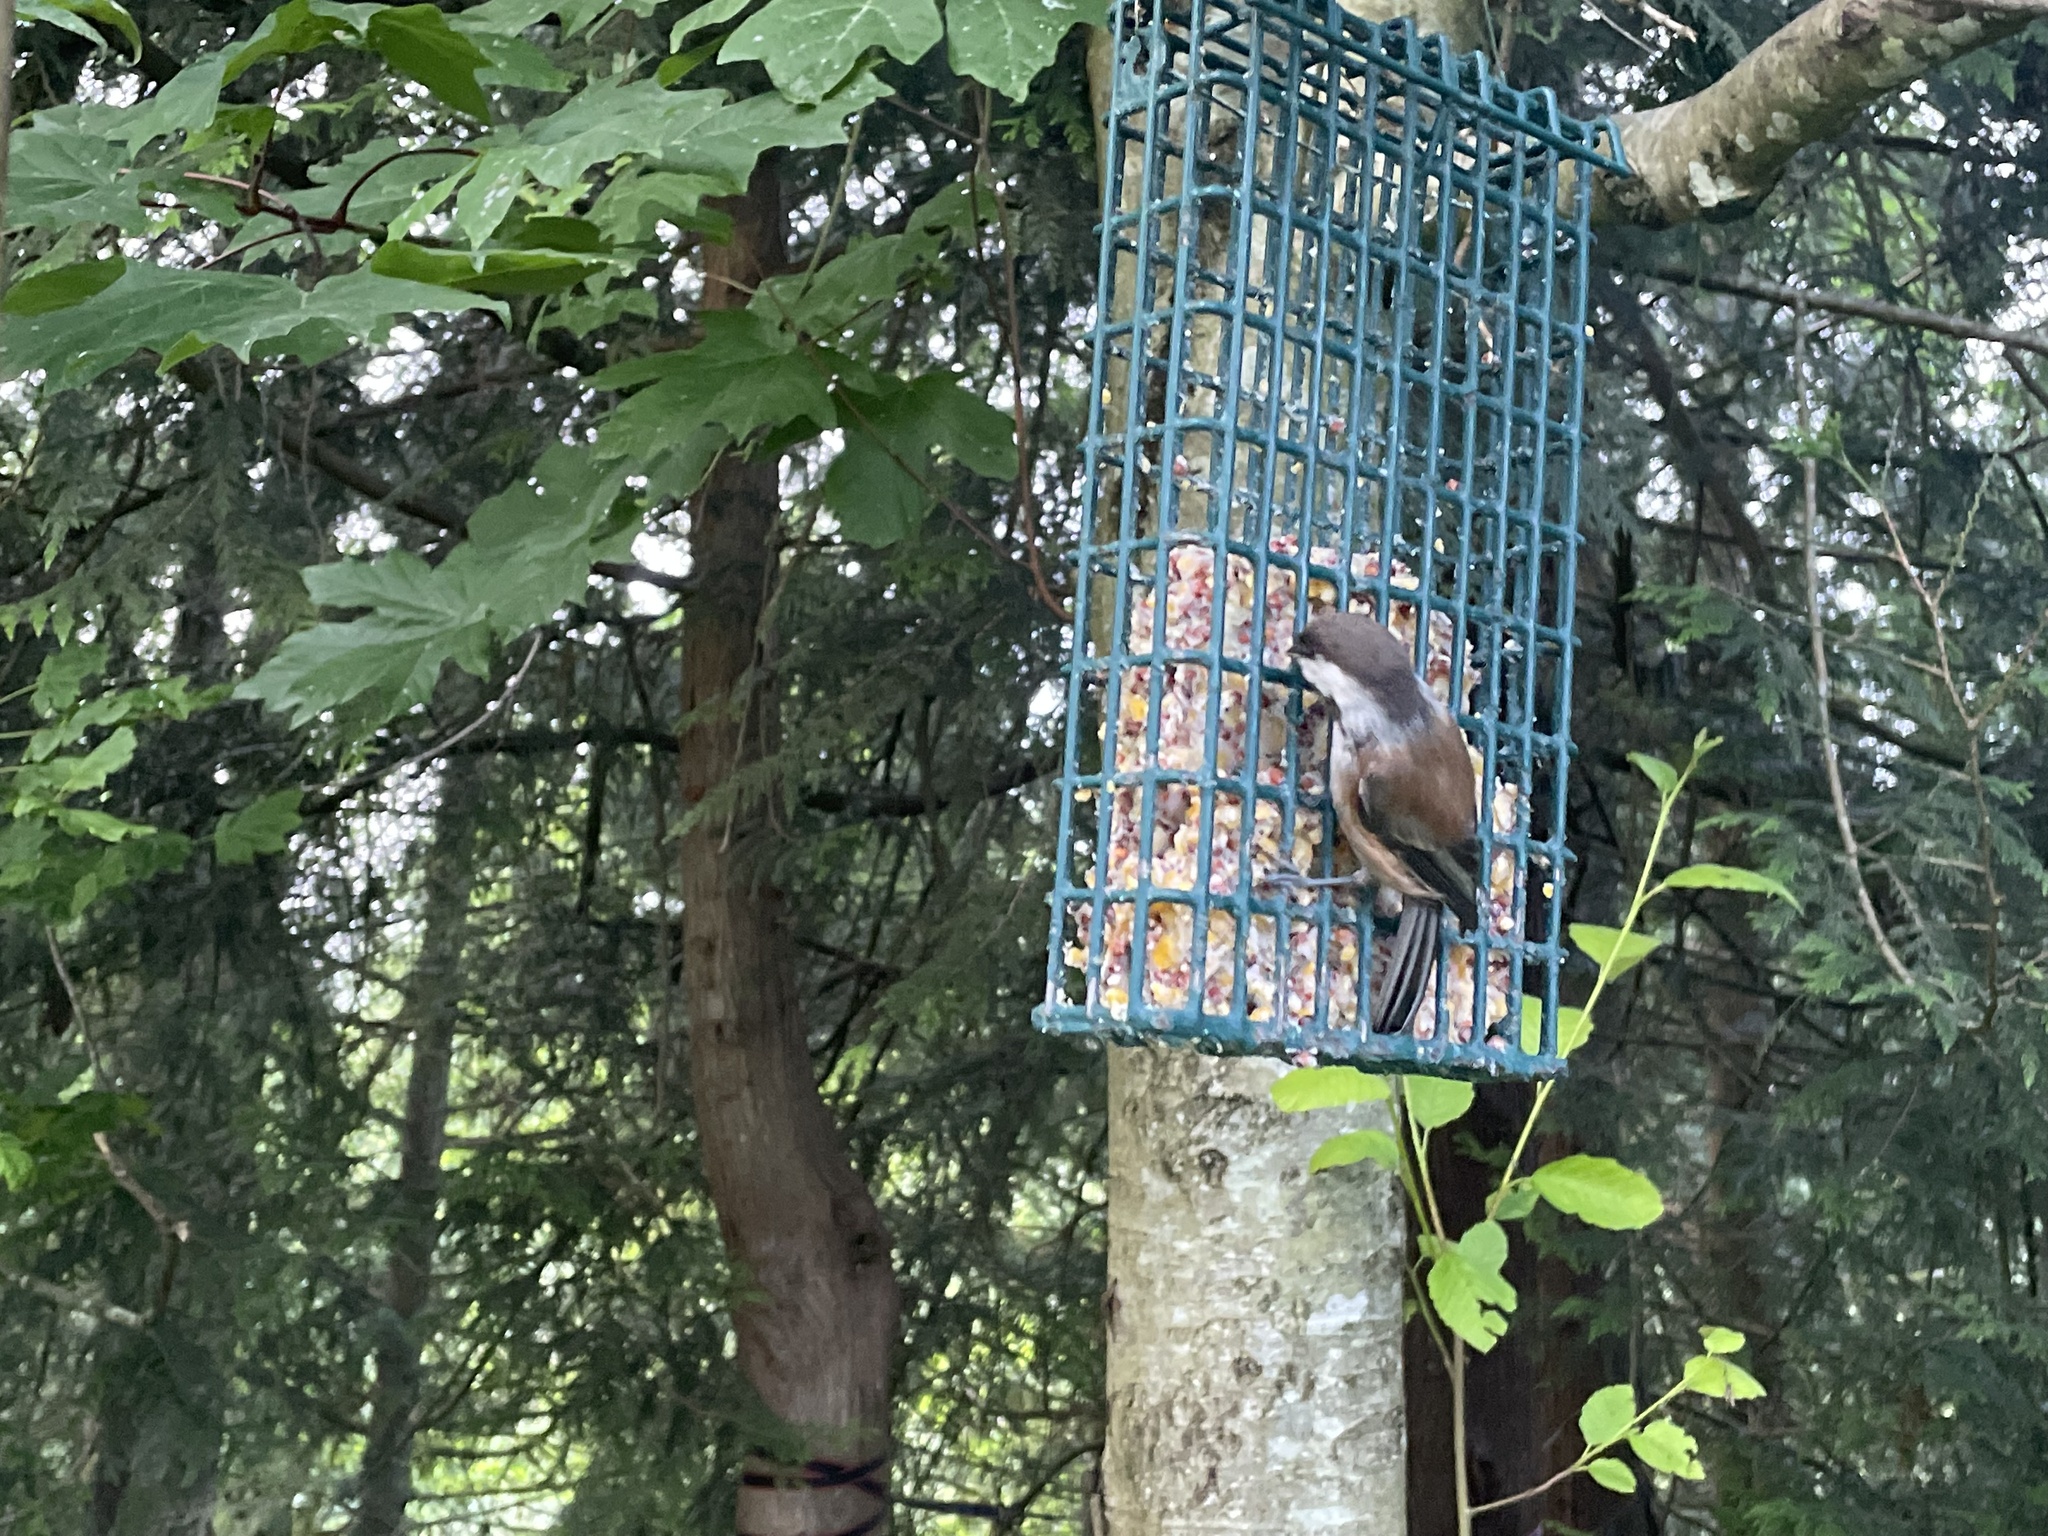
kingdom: Animalia
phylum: Chordata
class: Aves
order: Passeriformes
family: Paridae
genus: Poecile
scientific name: Poecile rufescens
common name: Chestnut-backed chickadee
